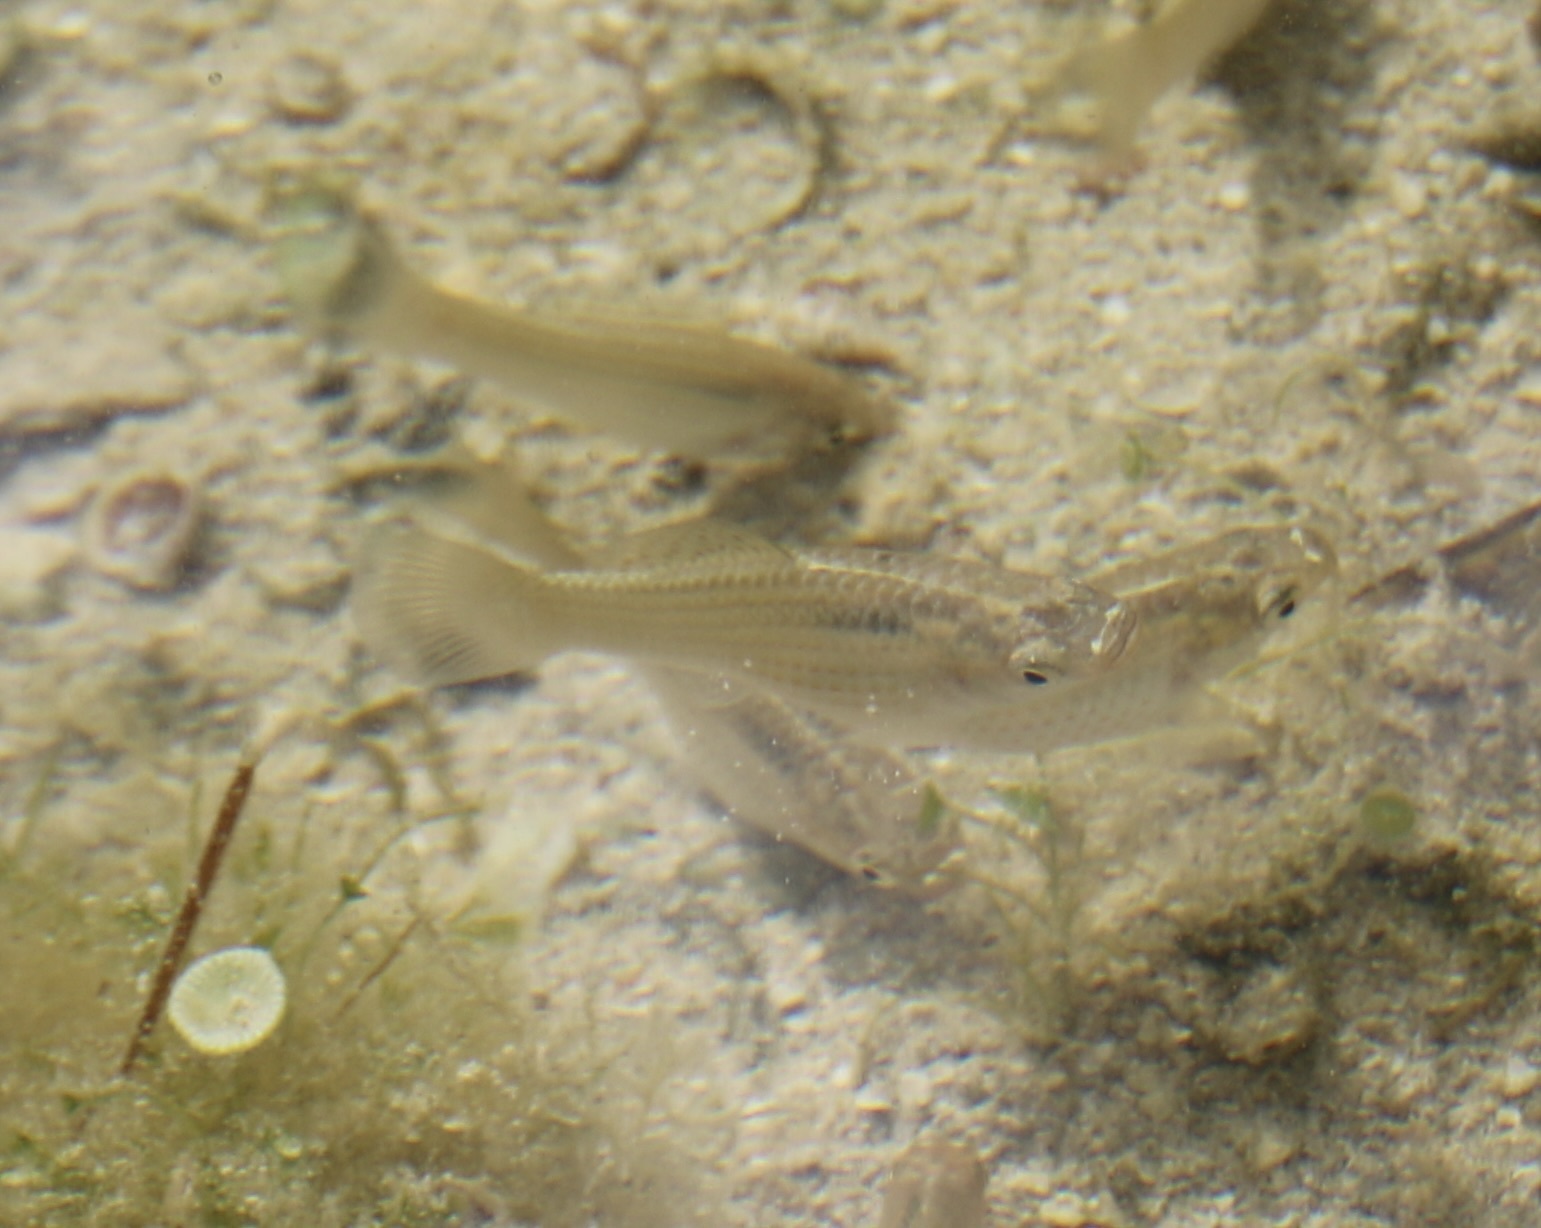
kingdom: Animalia
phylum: Chordata
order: Cyprinodontiformes
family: Poeciliidae
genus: Poecilia
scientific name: Poecilia latipinna
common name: Sailfin molly
